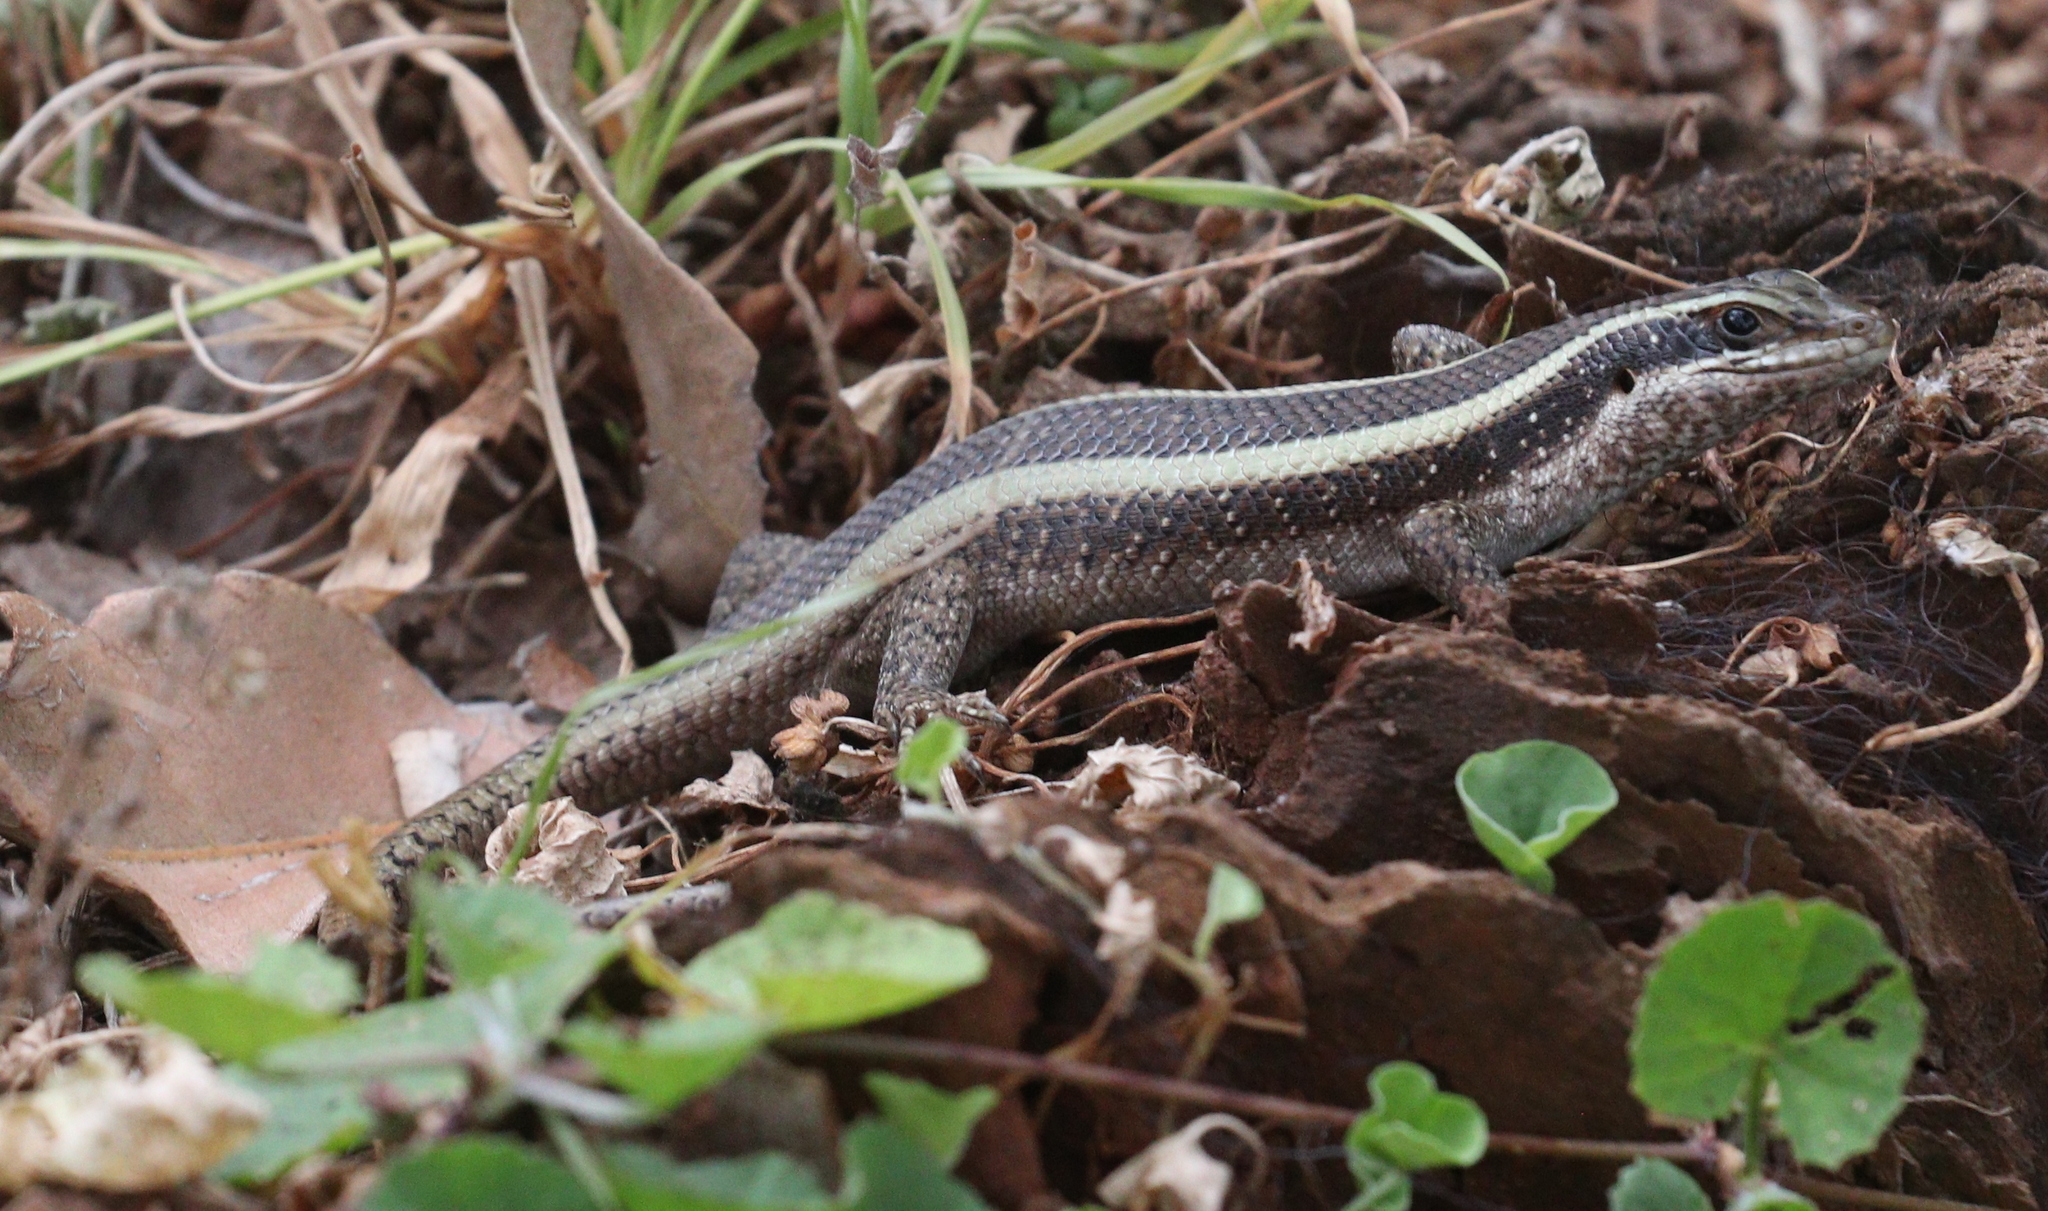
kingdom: Animalia
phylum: Chordata
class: Squamata
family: Scincidae
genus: Trachylepis
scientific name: Trachylepis striata
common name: African striped mabuya
